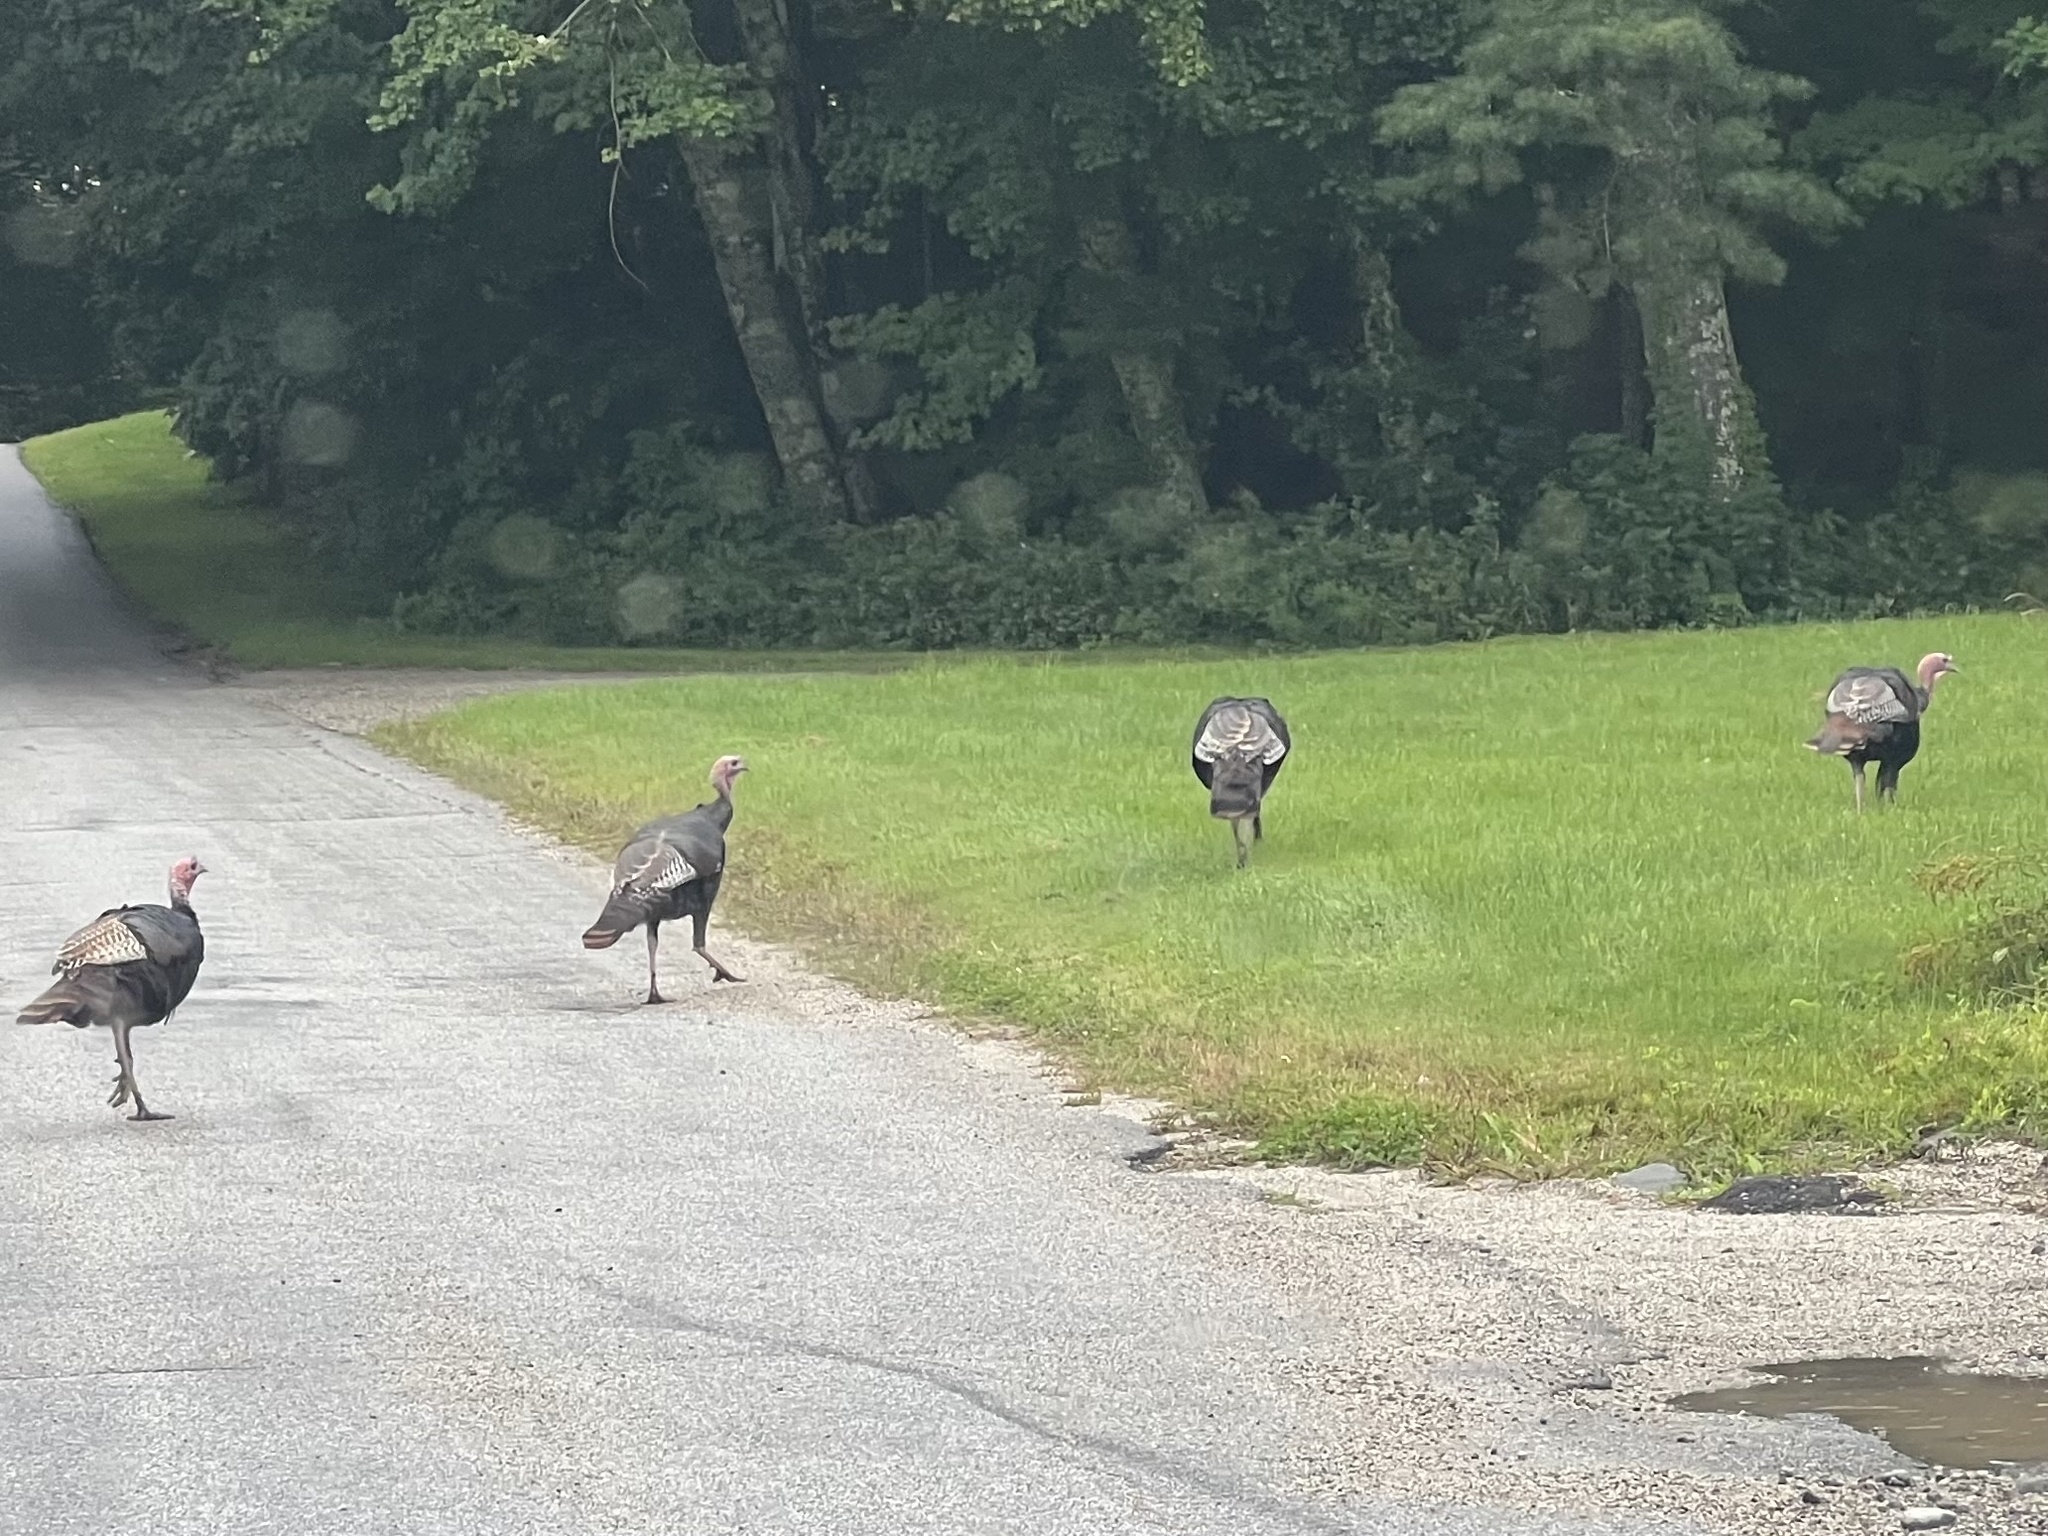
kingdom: Animalia
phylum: Chordata
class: Aves
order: Galliformes
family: Phasianidae
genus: Meleagris
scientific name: Meleagris gallopavo
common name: Wild turkey
